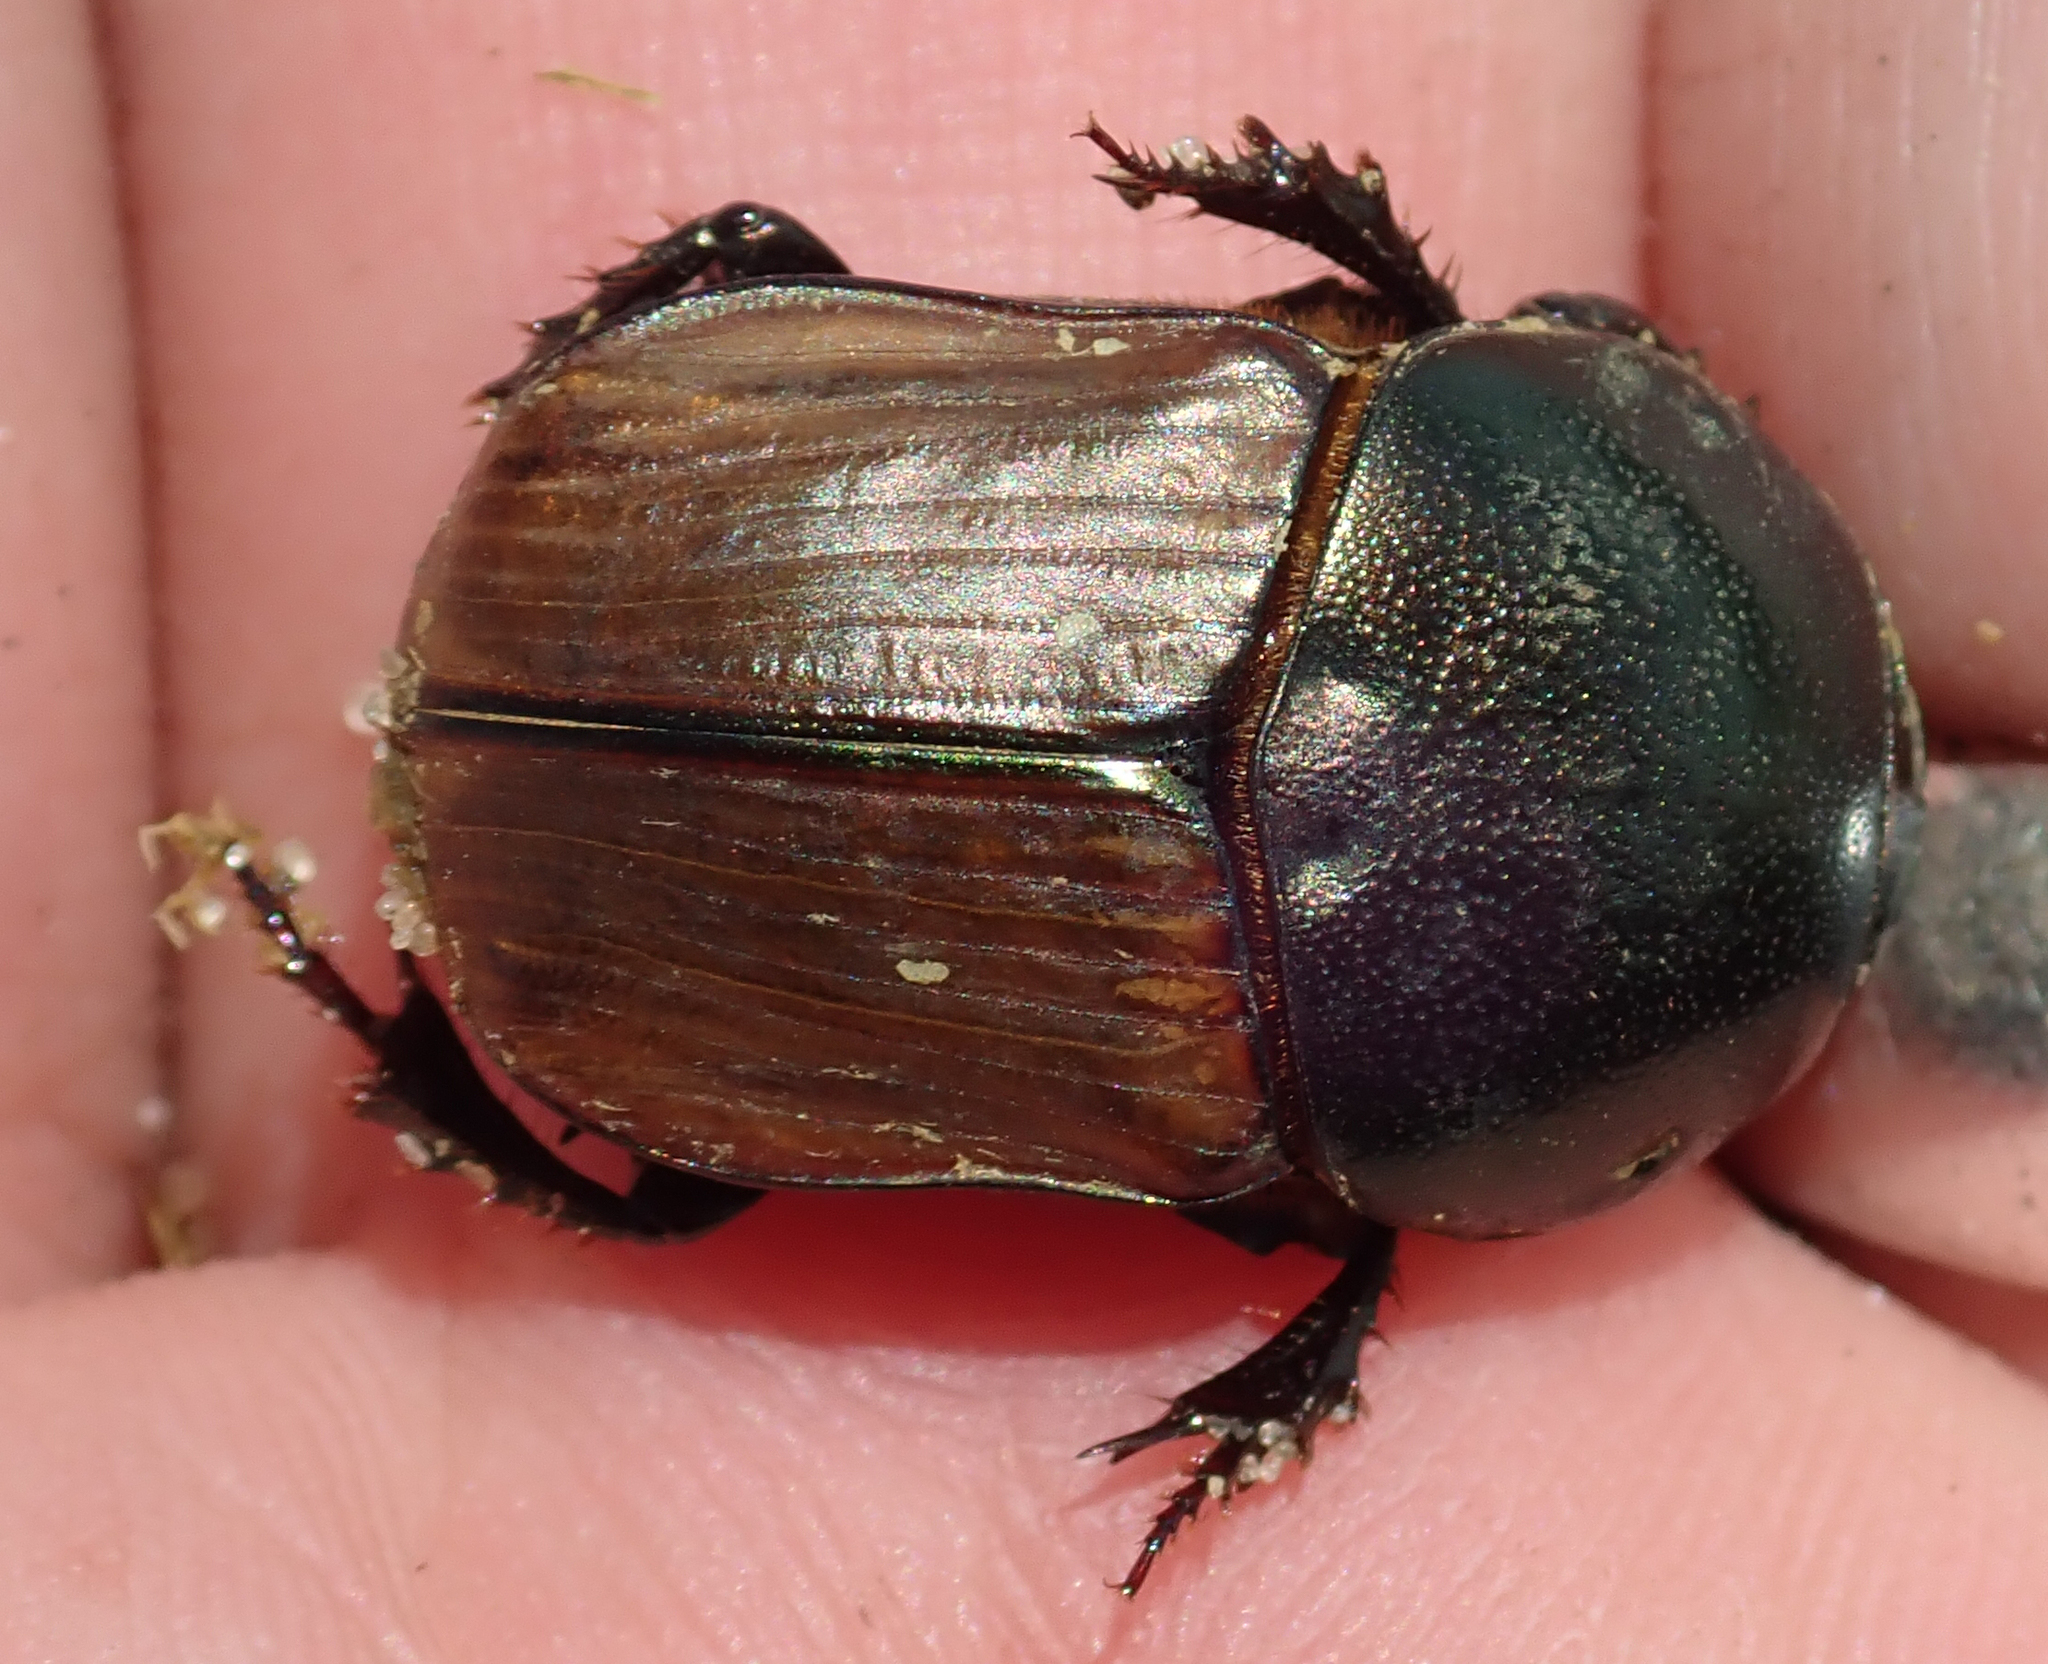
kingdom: Animalia
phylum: Arthropoda
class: Insecta
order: Coleoptera
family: Scarabaeidae
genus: Onitis
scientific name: Onitis alexis
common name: Alexis dung beetle
